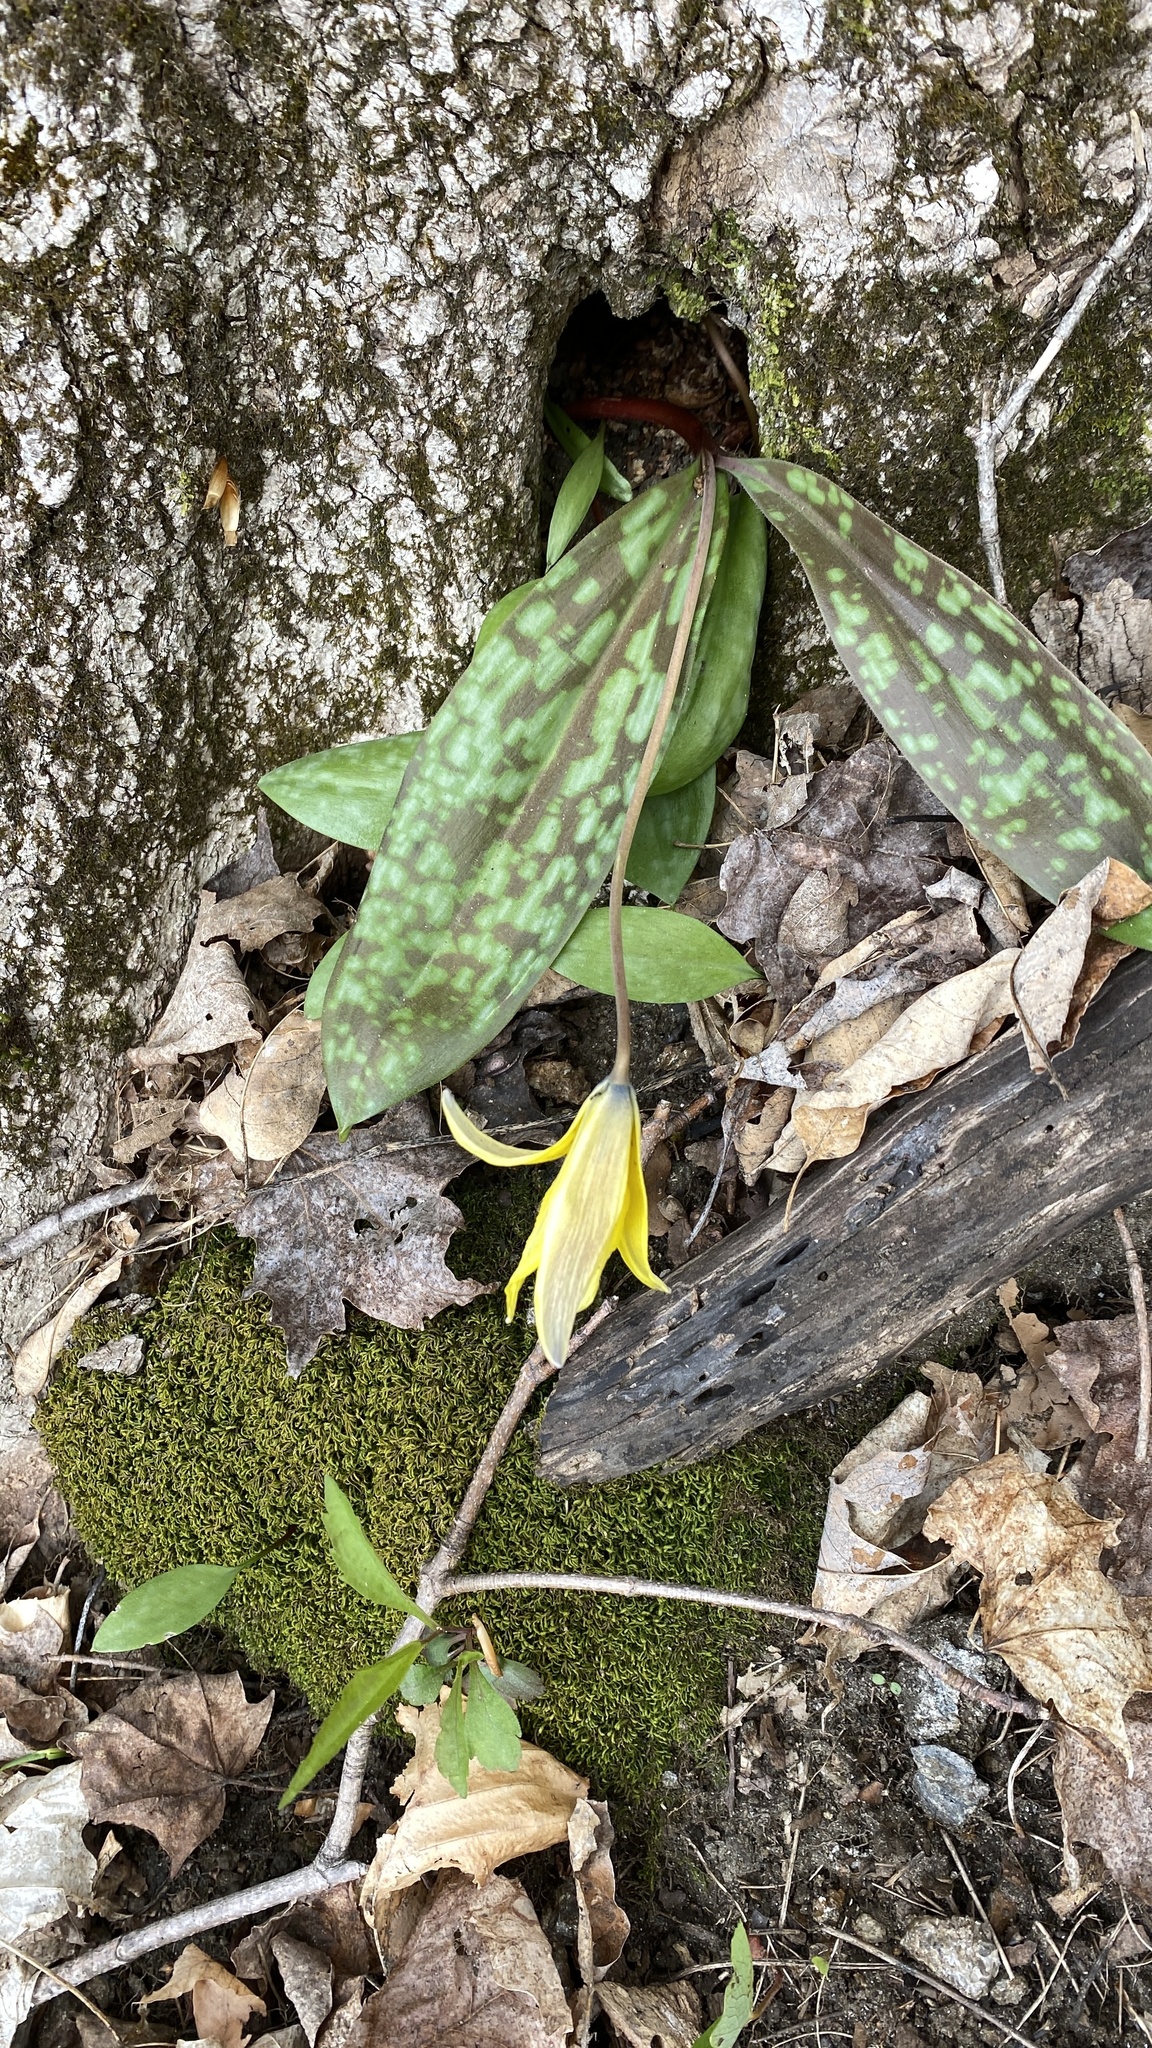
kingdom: Plantae
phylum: Tracheophyta
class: Liliopsida
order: Liliales
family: Liliaceae
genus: Erythronium
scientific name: Erythronium americanum
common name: Yellow adder's-tongue
